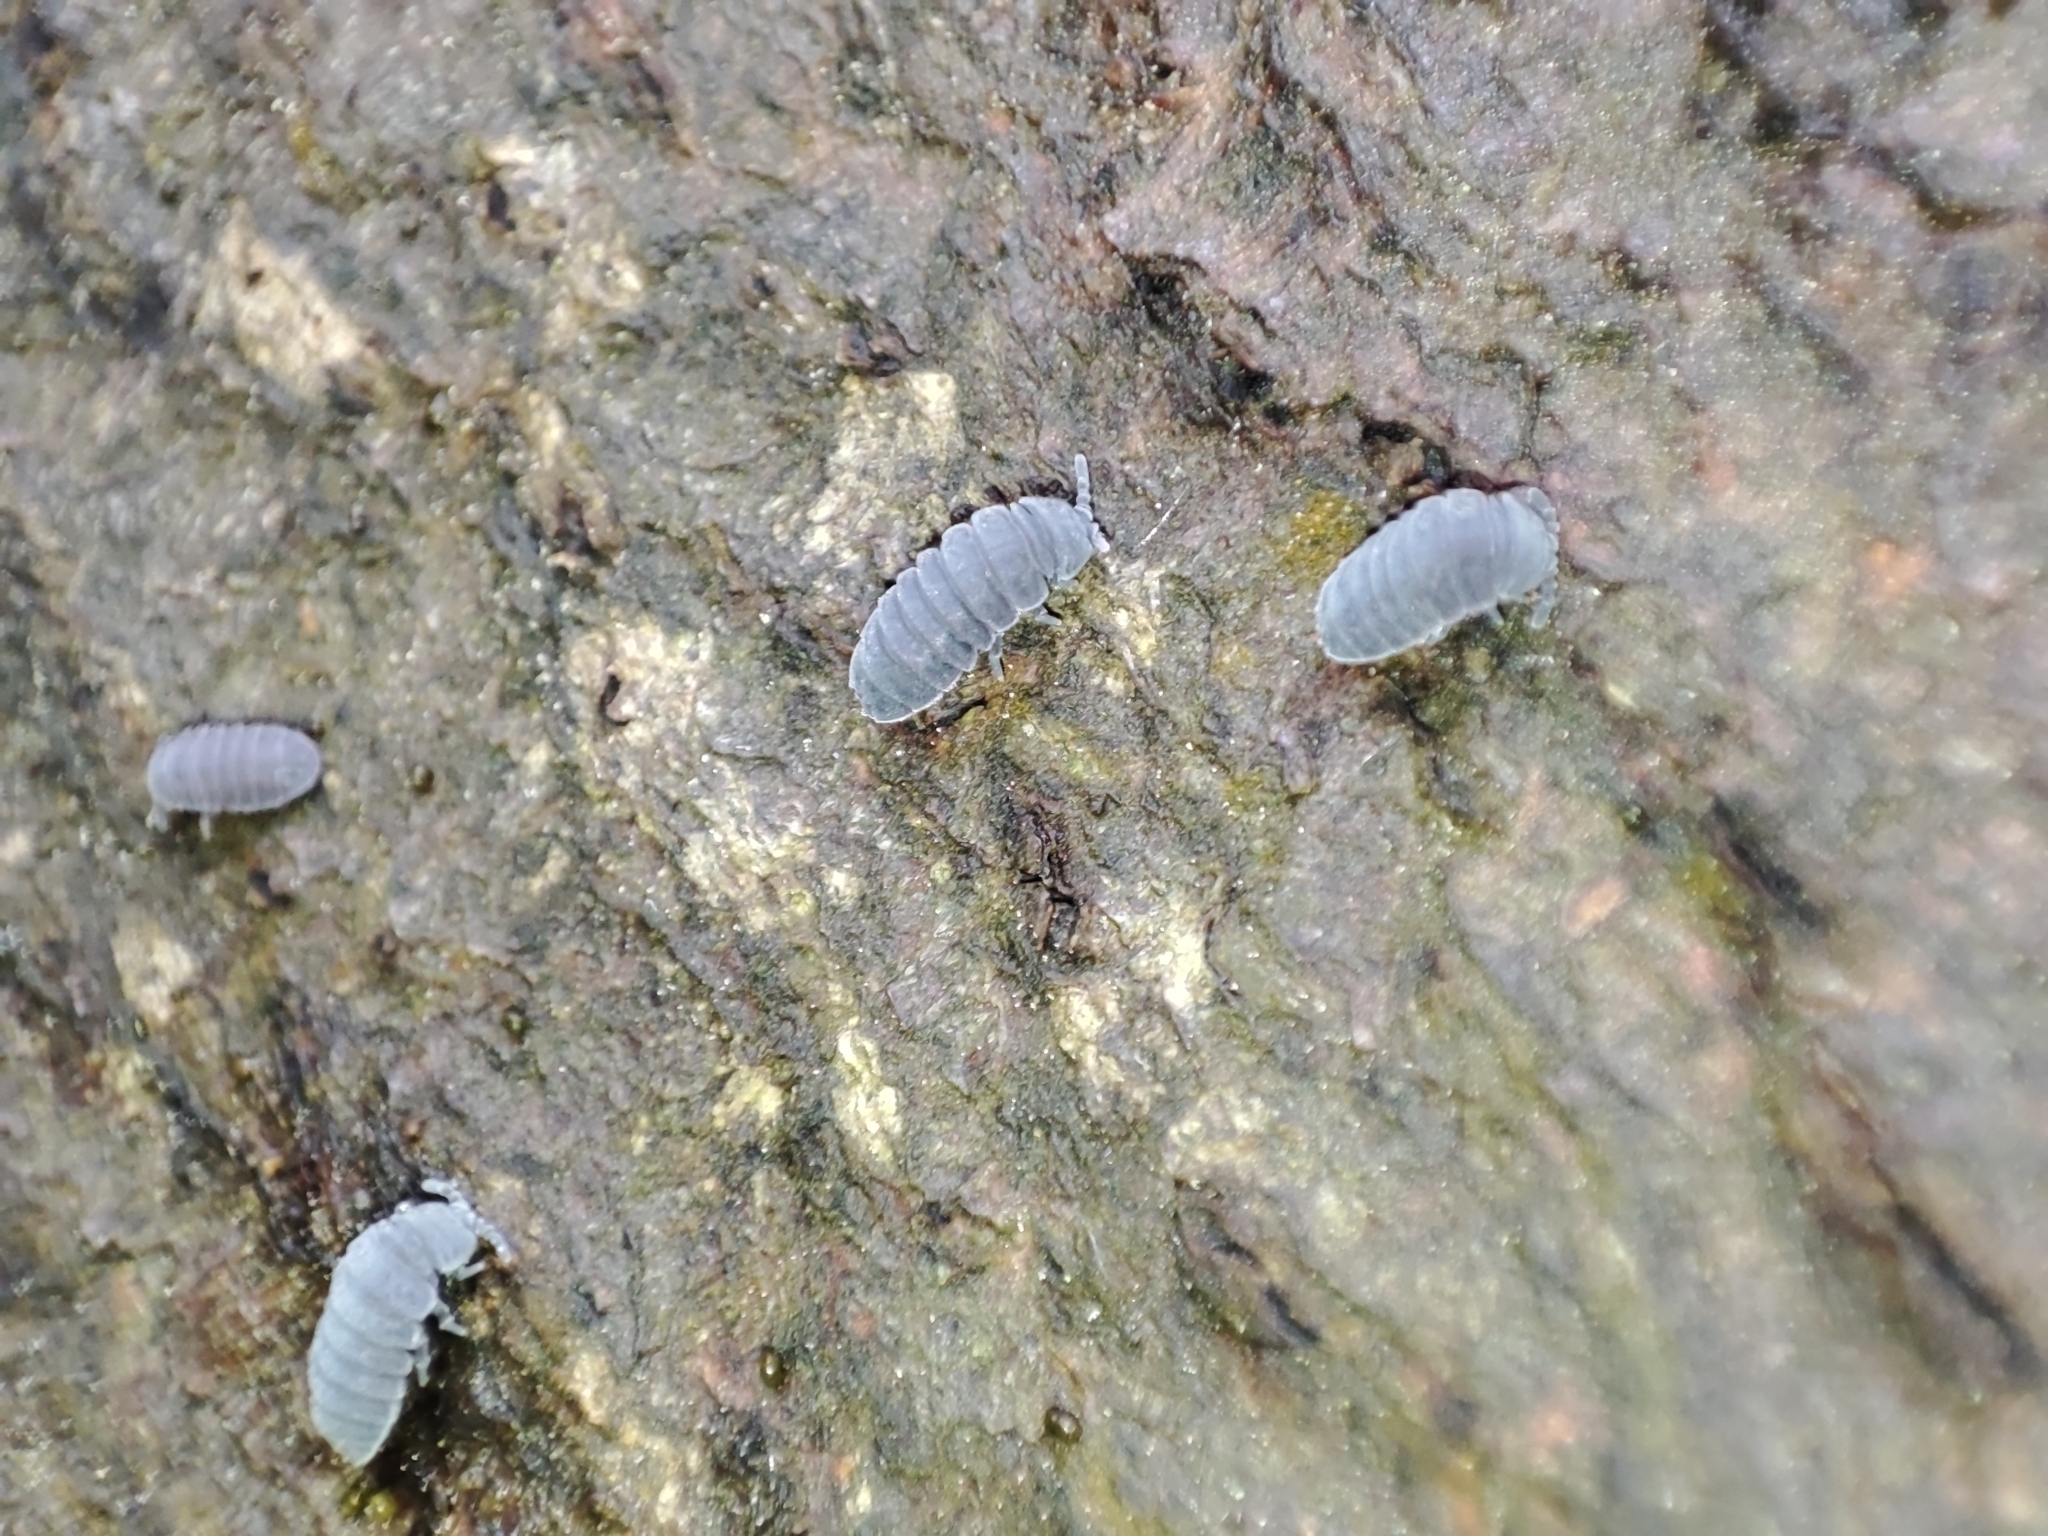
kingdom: Animalia
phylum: Arthropoda
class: Collembola
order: Poduromorpha
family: Onychiuridae
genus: Tetrodontophora
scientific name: Tetrodontophora bielanensis
